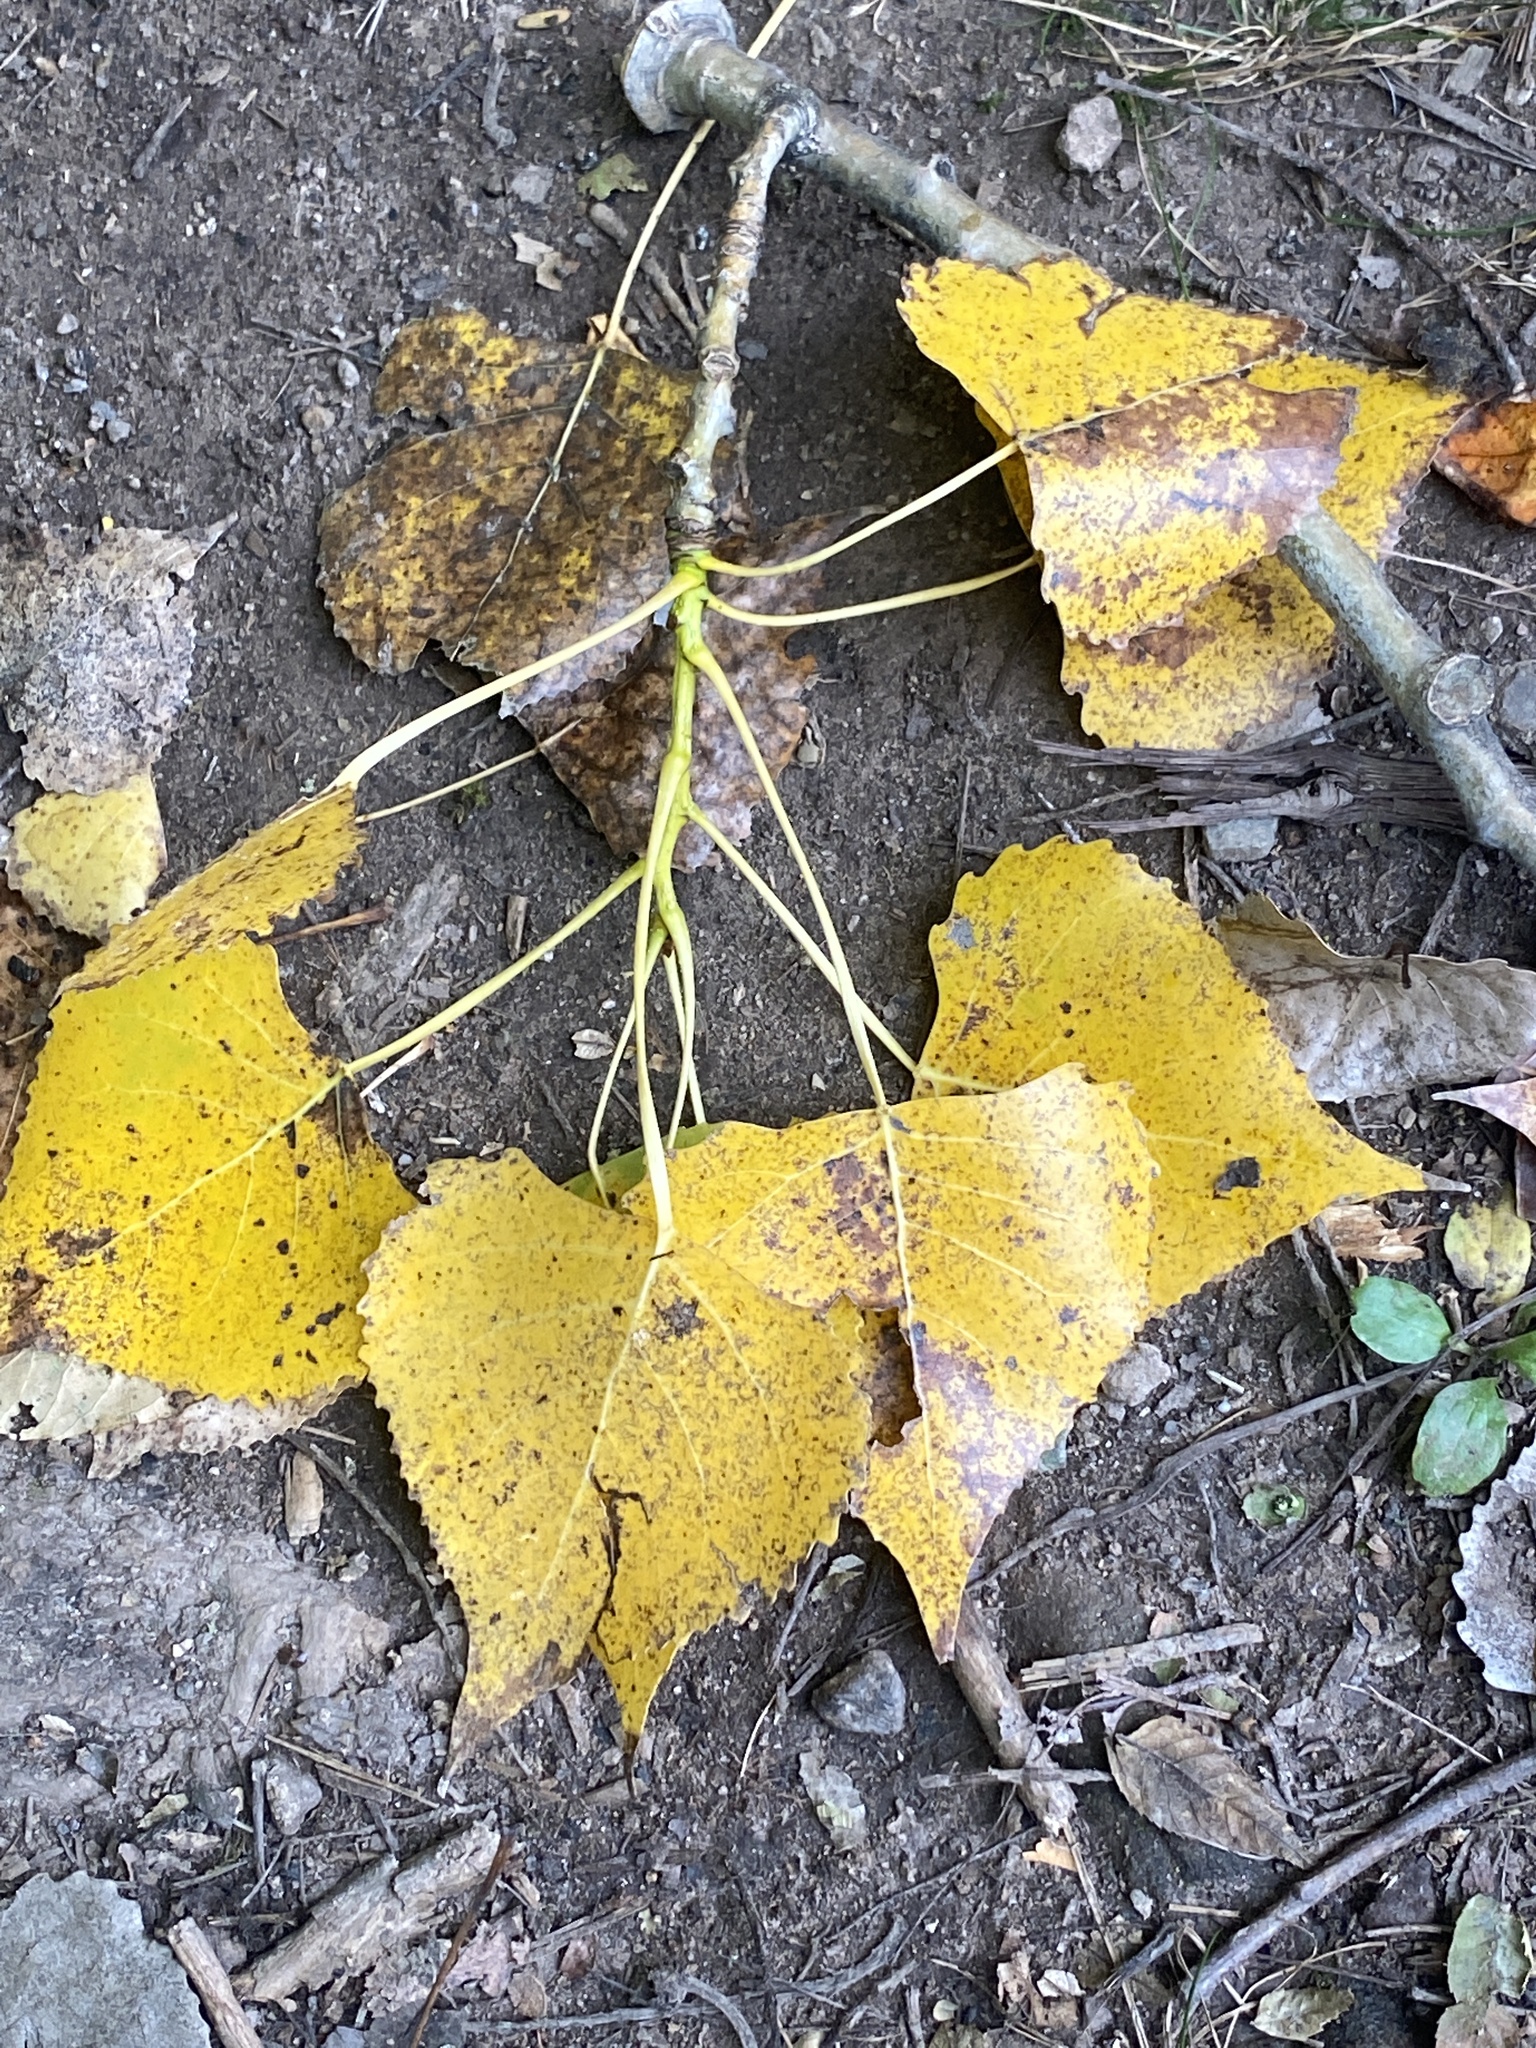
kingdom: Plantae
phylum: Tracheophyta
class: Magnoliopsida
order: Malpighiales
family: Salicaceae
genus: Populus
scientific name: Populus deltoides
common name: Eastern cottonwood
